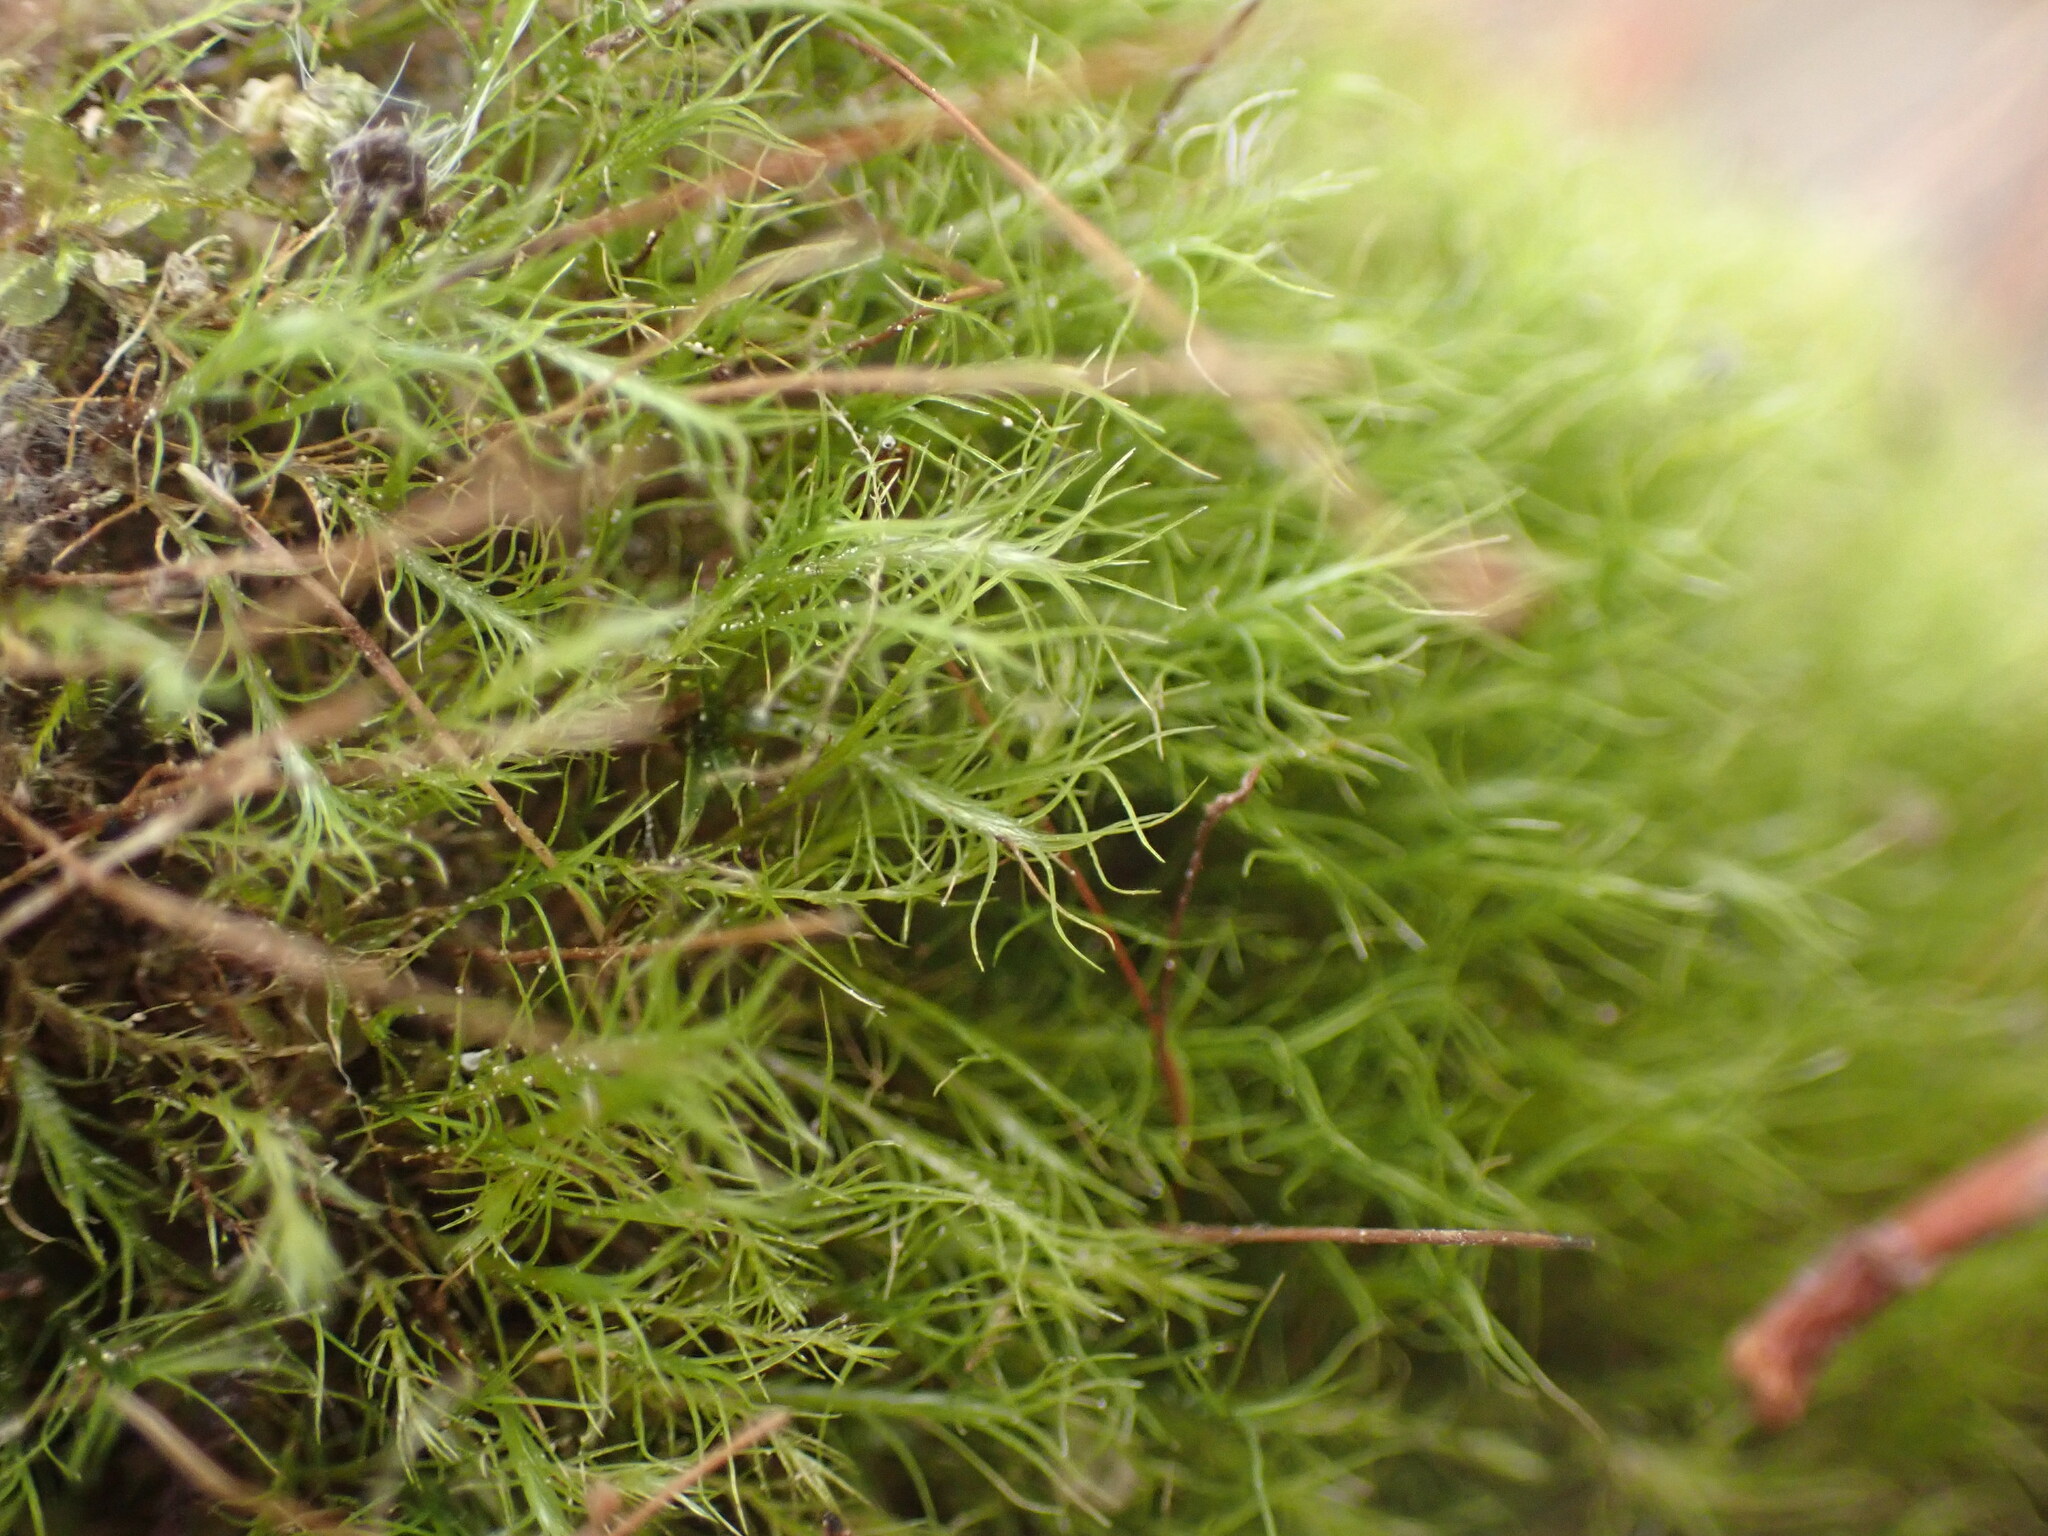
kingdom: Plantae
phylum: Bryophyta
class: Bryopsida
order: Scouleriales
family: Distichiaceae
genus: Distichium
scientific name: Distichium capillaceum
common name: Erect-fruited iris moss
